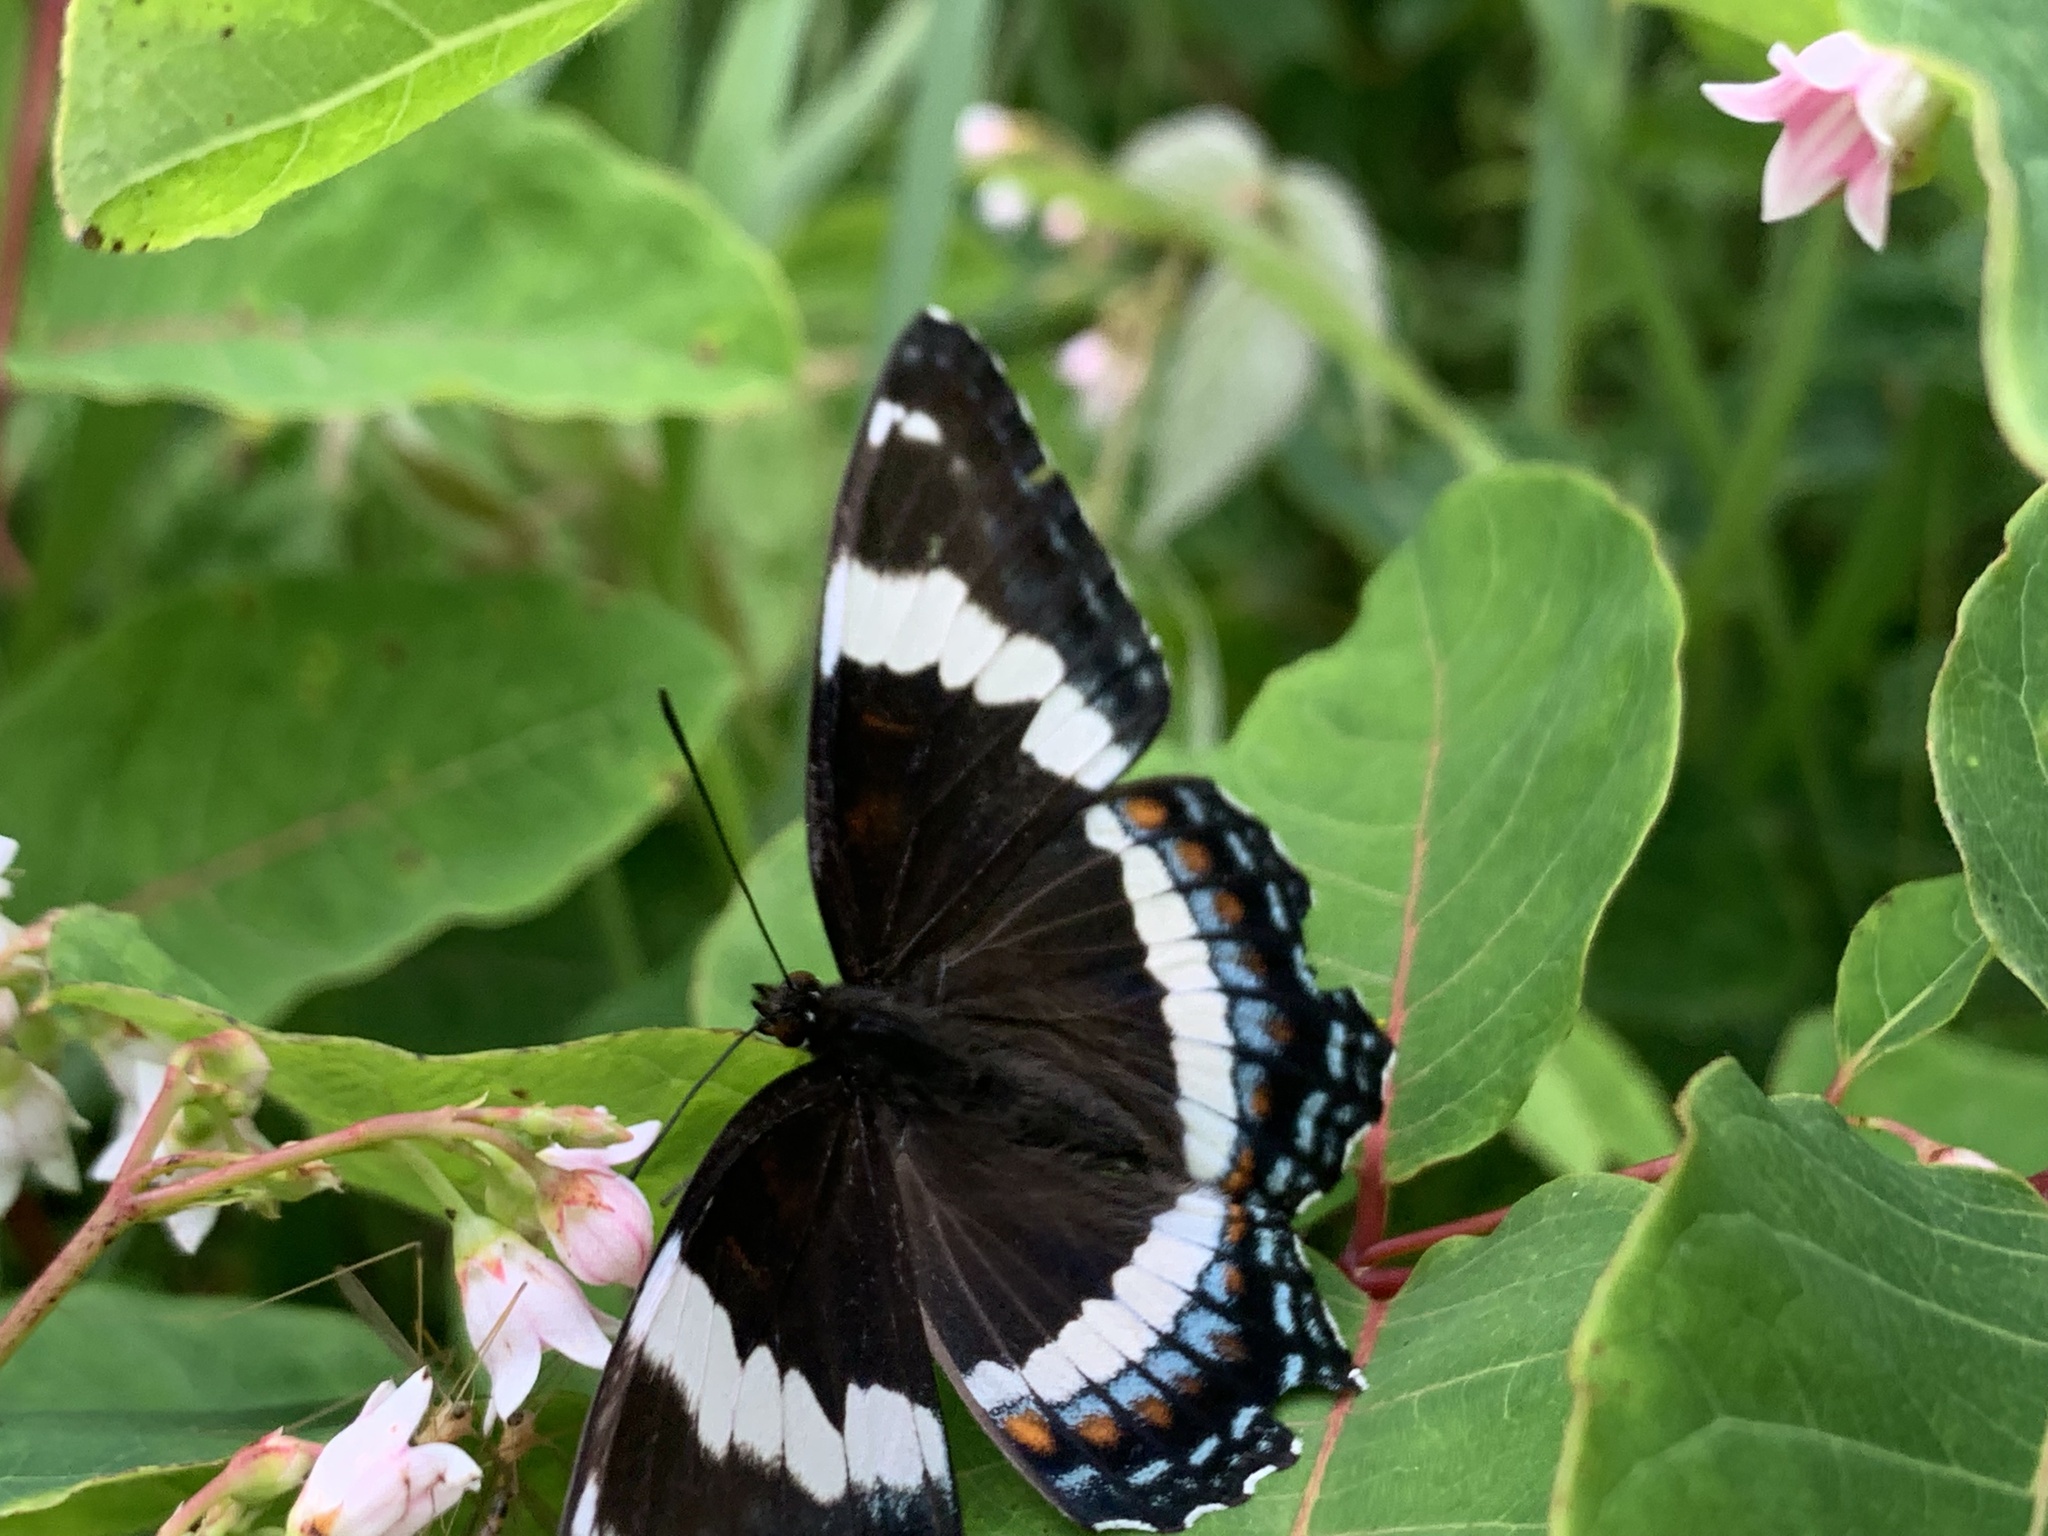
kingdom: Animalia
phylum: Arthropoda
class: Insecta
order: Lepidoptera
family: Nymphalidae
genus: Limenitis
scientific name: Limenitis arthemis
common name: Red-spotted admiral
